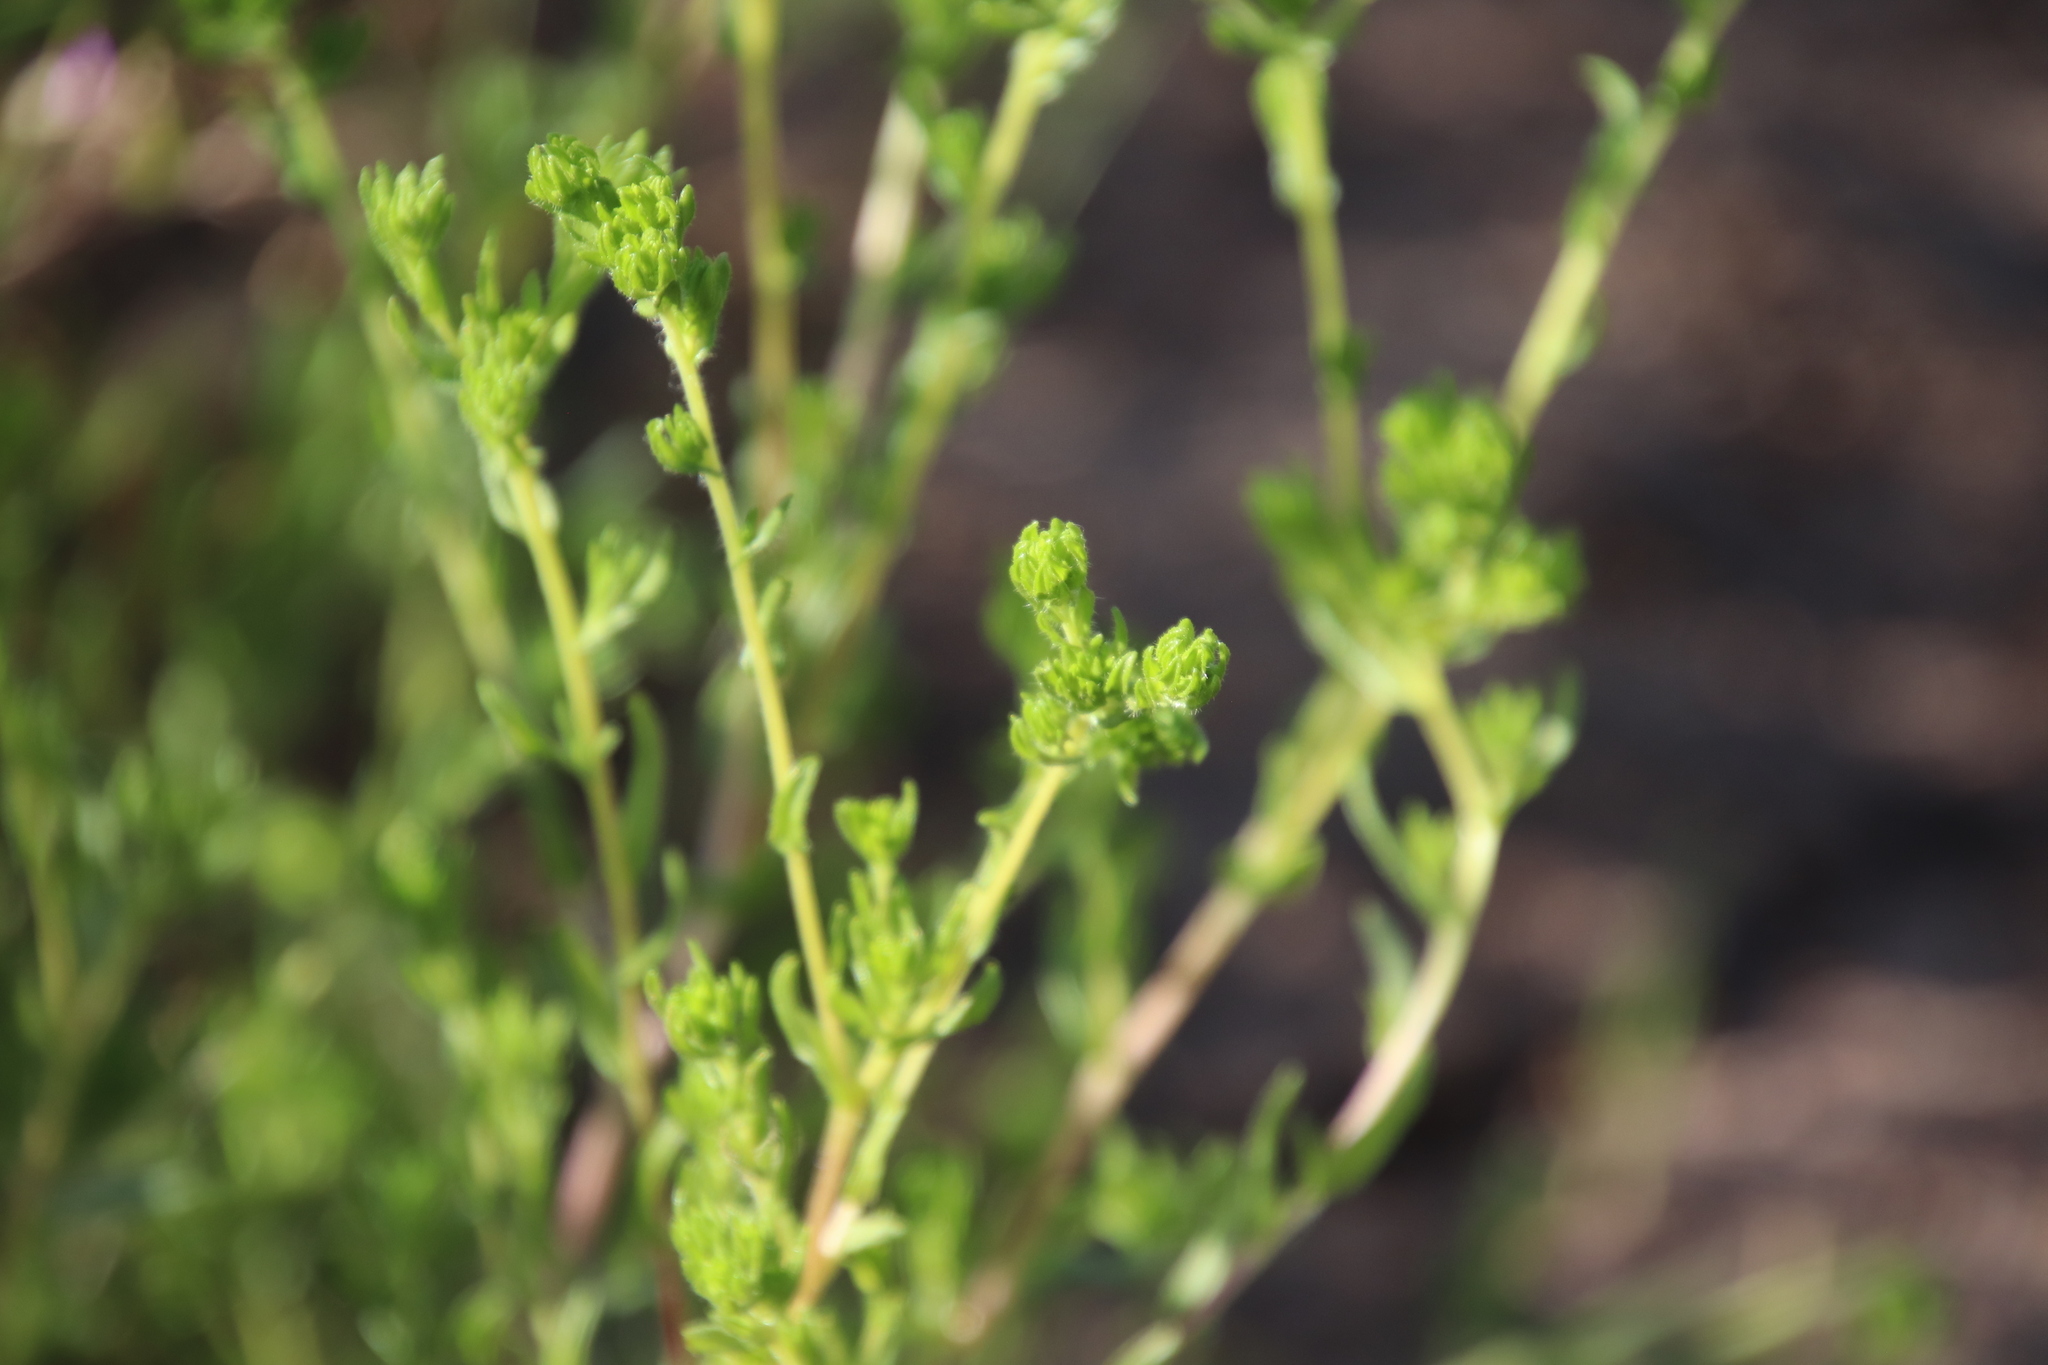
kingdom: Plantae
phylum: Tracheophyta
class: Magnoliopsida
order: Asterales
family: Asteraceae
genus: Deinandra
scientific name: Deinandra fasciculata
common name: Clustered tarweed
